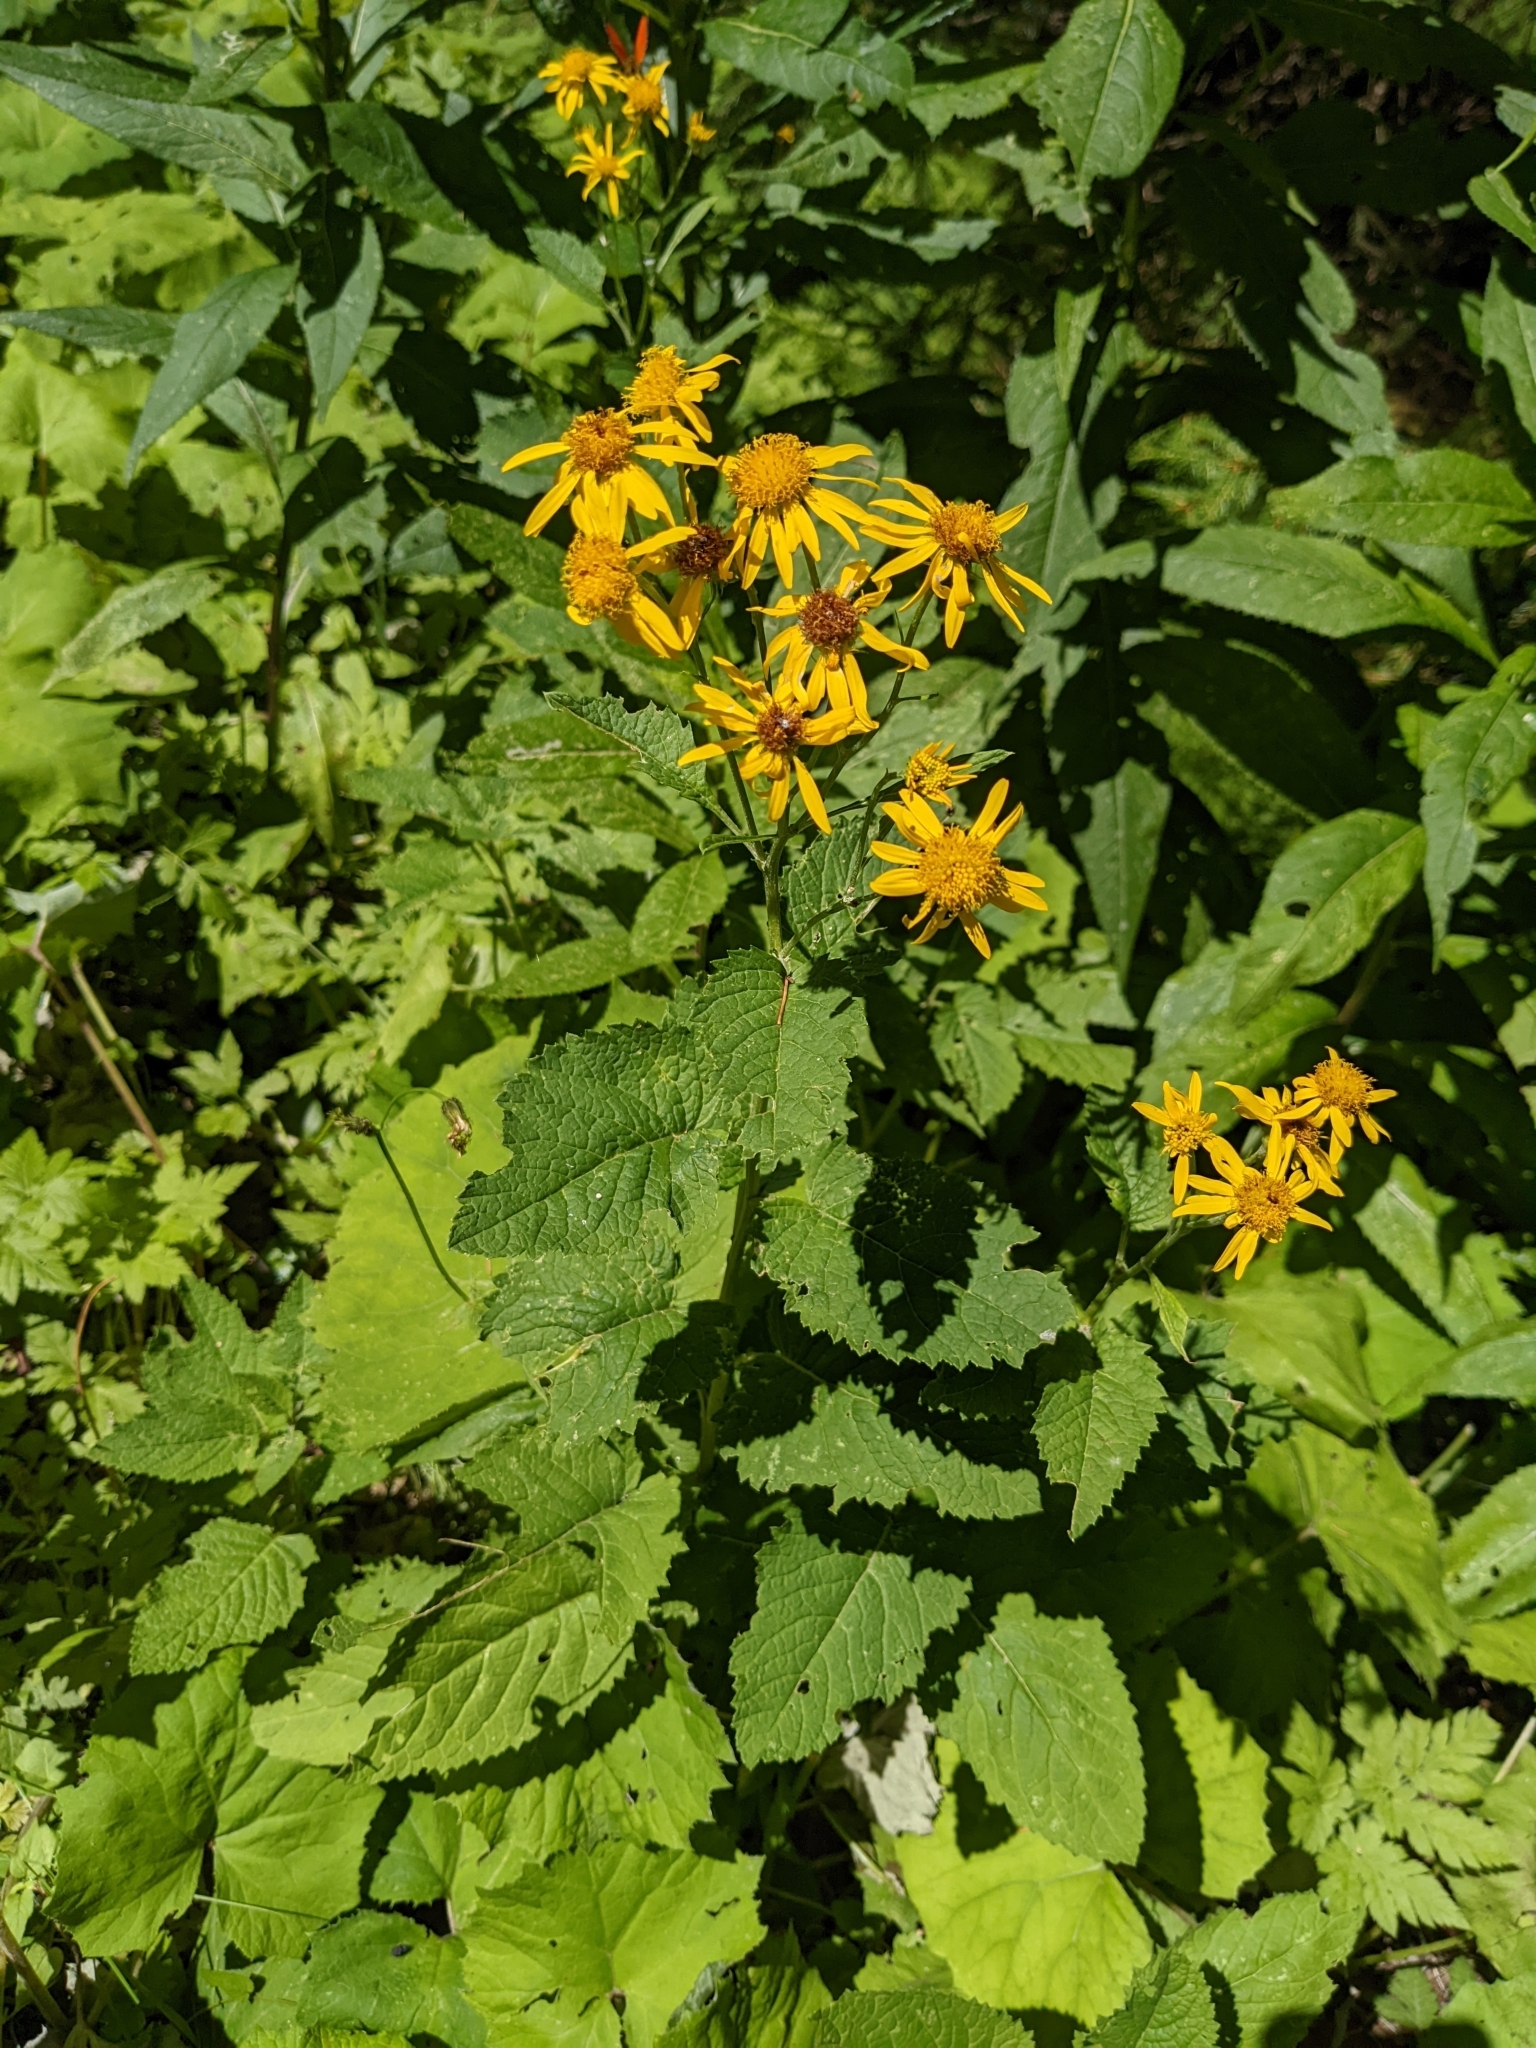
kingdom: Plantae
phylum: Tracheophyta
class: Magnoliopsida
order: Asterales
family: Asteraceae
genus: Jacobaea
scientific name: Jacobaea alpina
